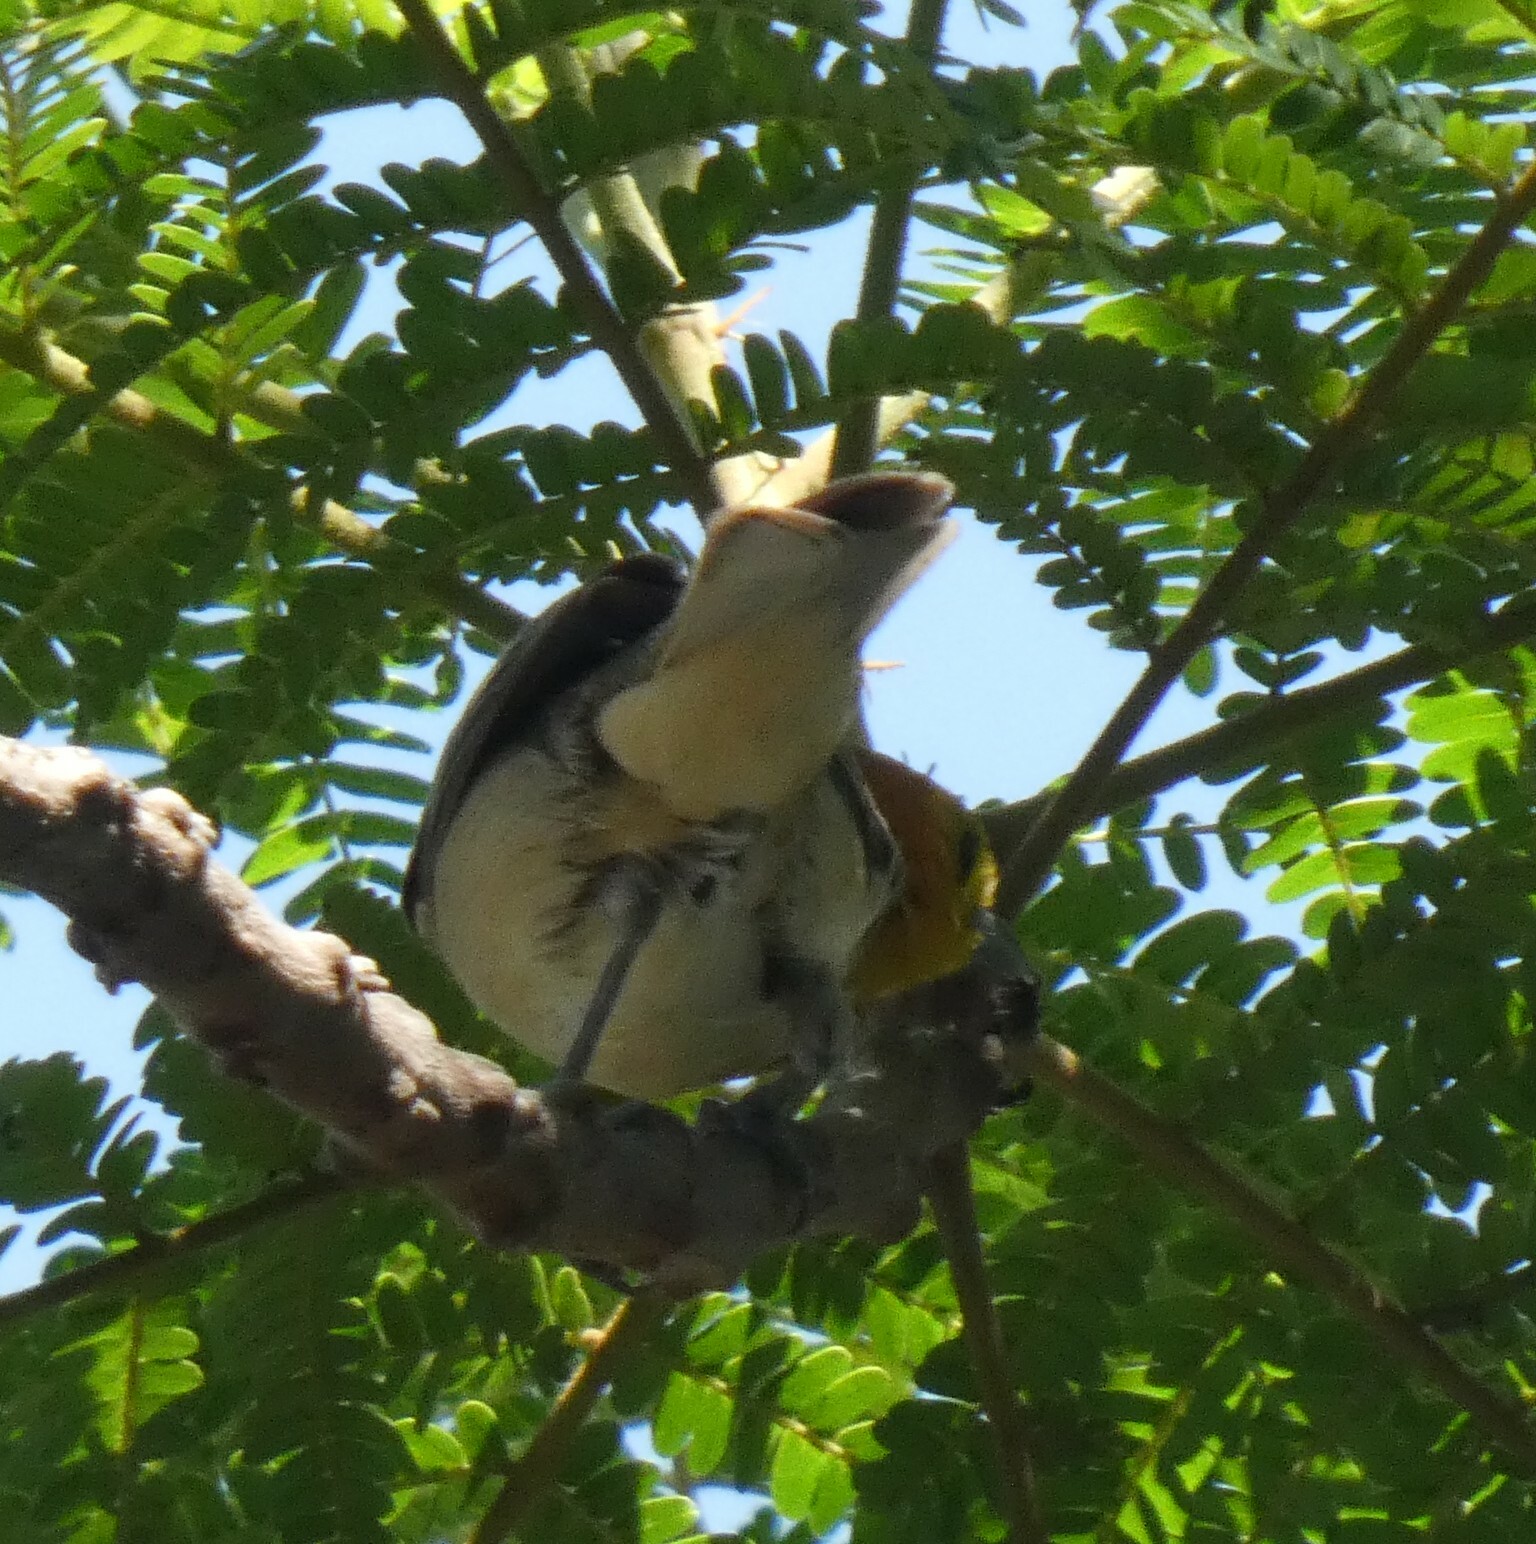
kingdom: Animalia
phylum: Chordata
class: Aves
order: Passeriformes
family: Thraupidae
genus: Thlypopsis
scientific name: Thlypopsis sordida
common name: Orange-headed tanager
